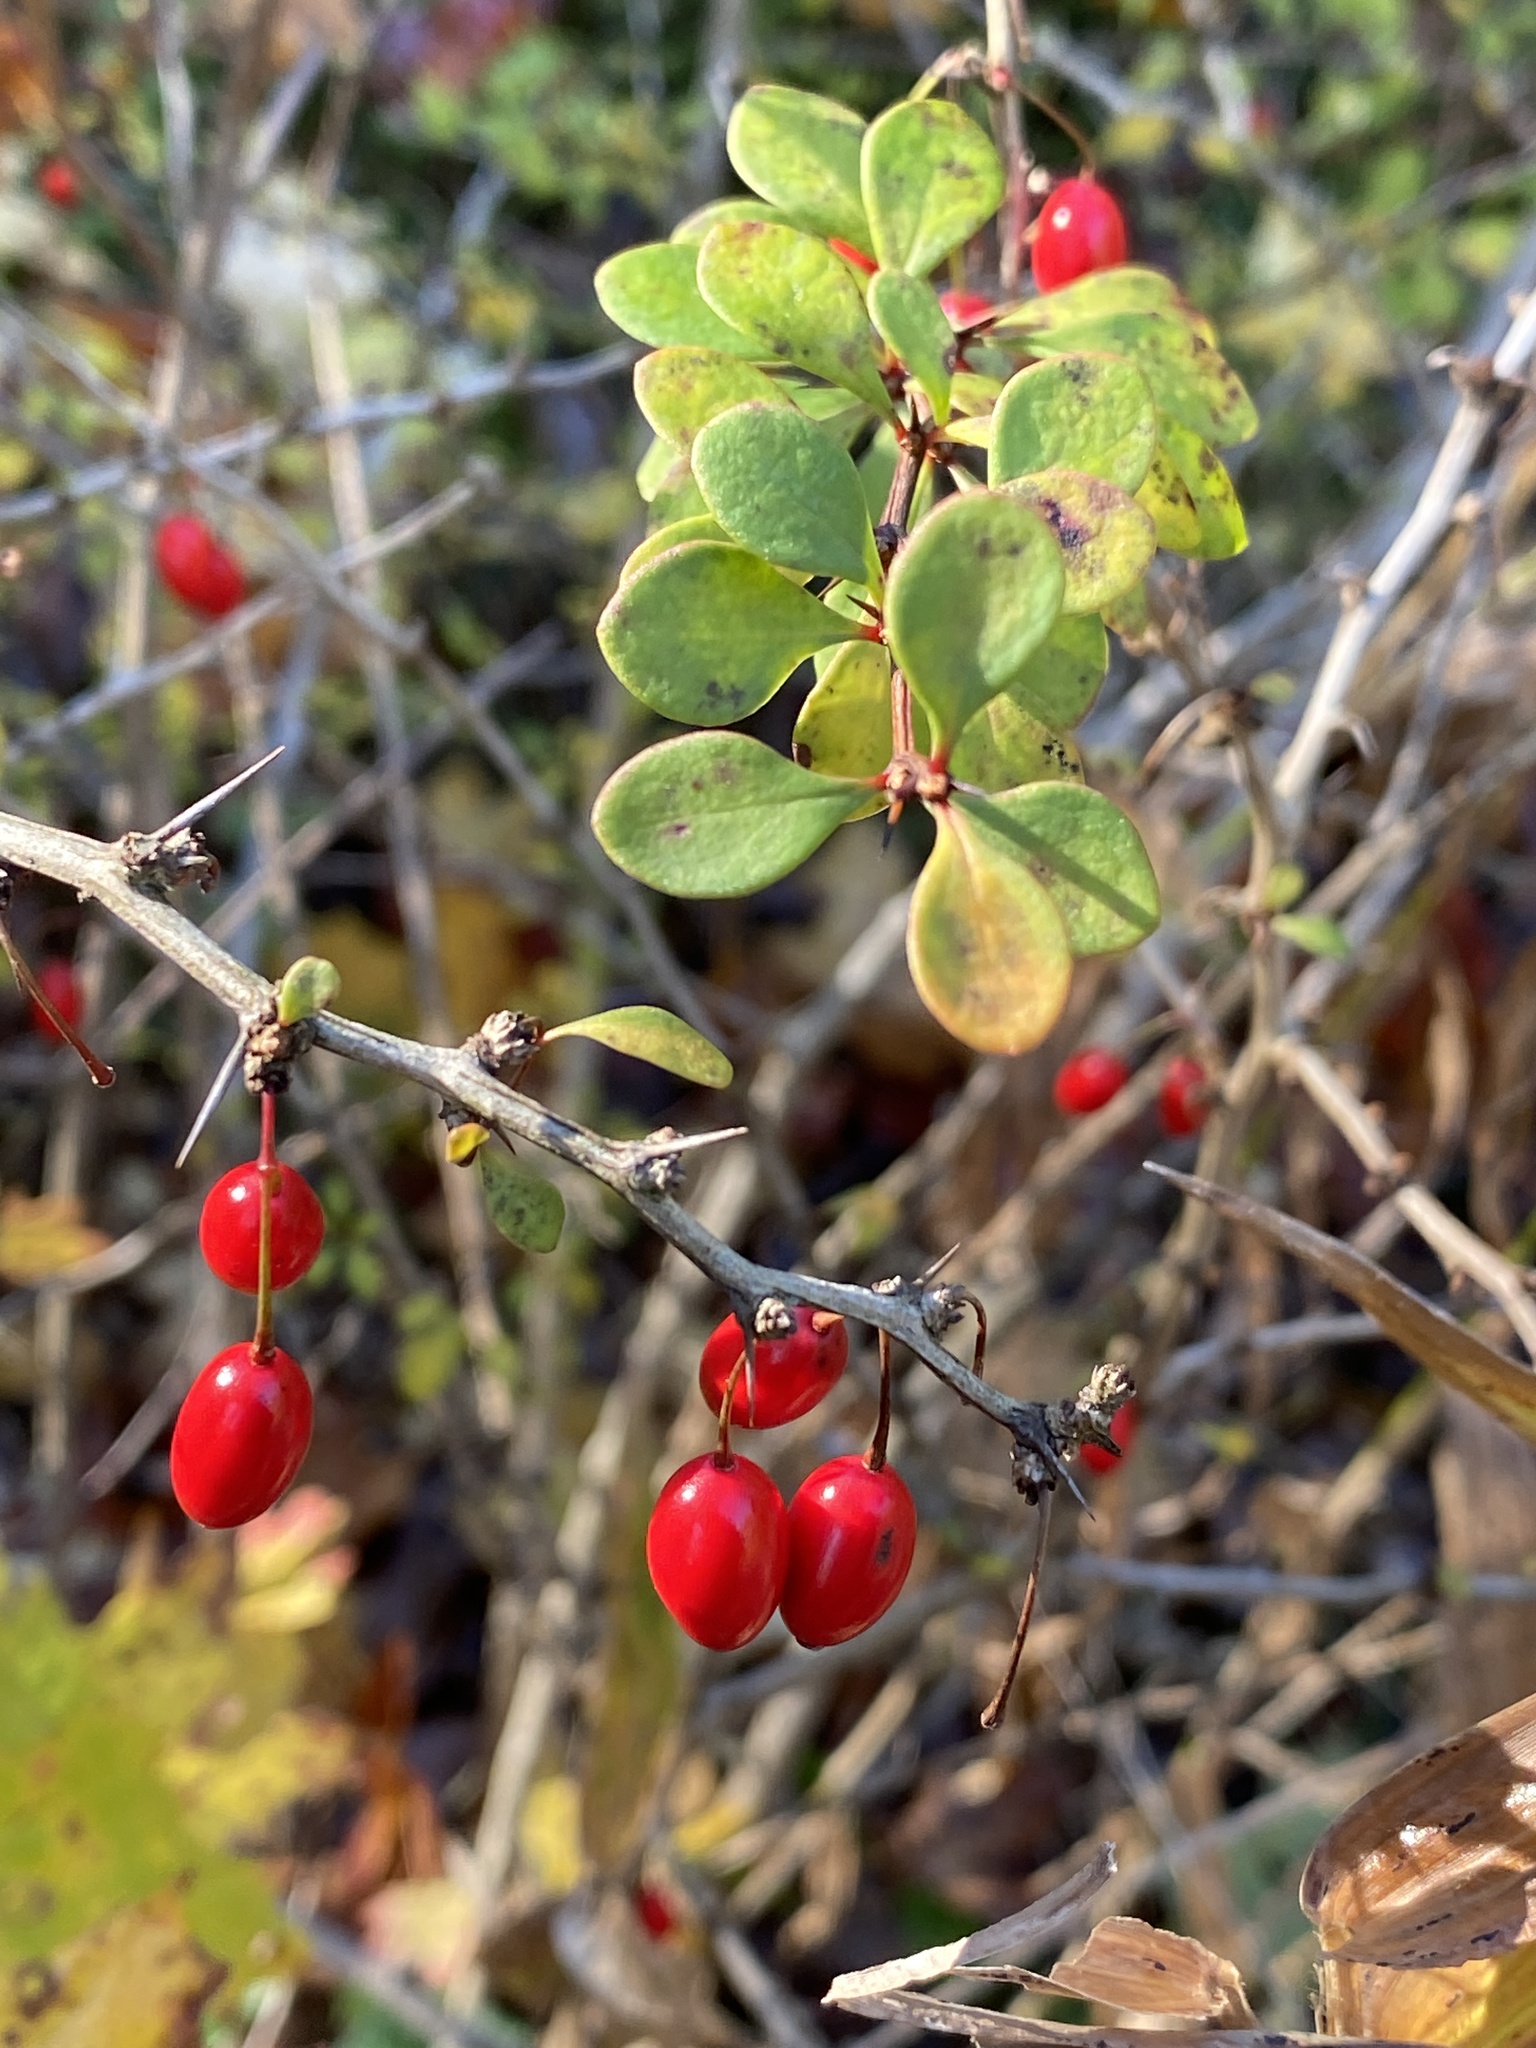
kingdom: Plantae
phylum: Tracheophyta
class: Magnoliopsida
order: Ranunculales
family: Berberidaceae
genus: Berberis
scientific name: Berberis thunbergii
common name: Japanese barberry
